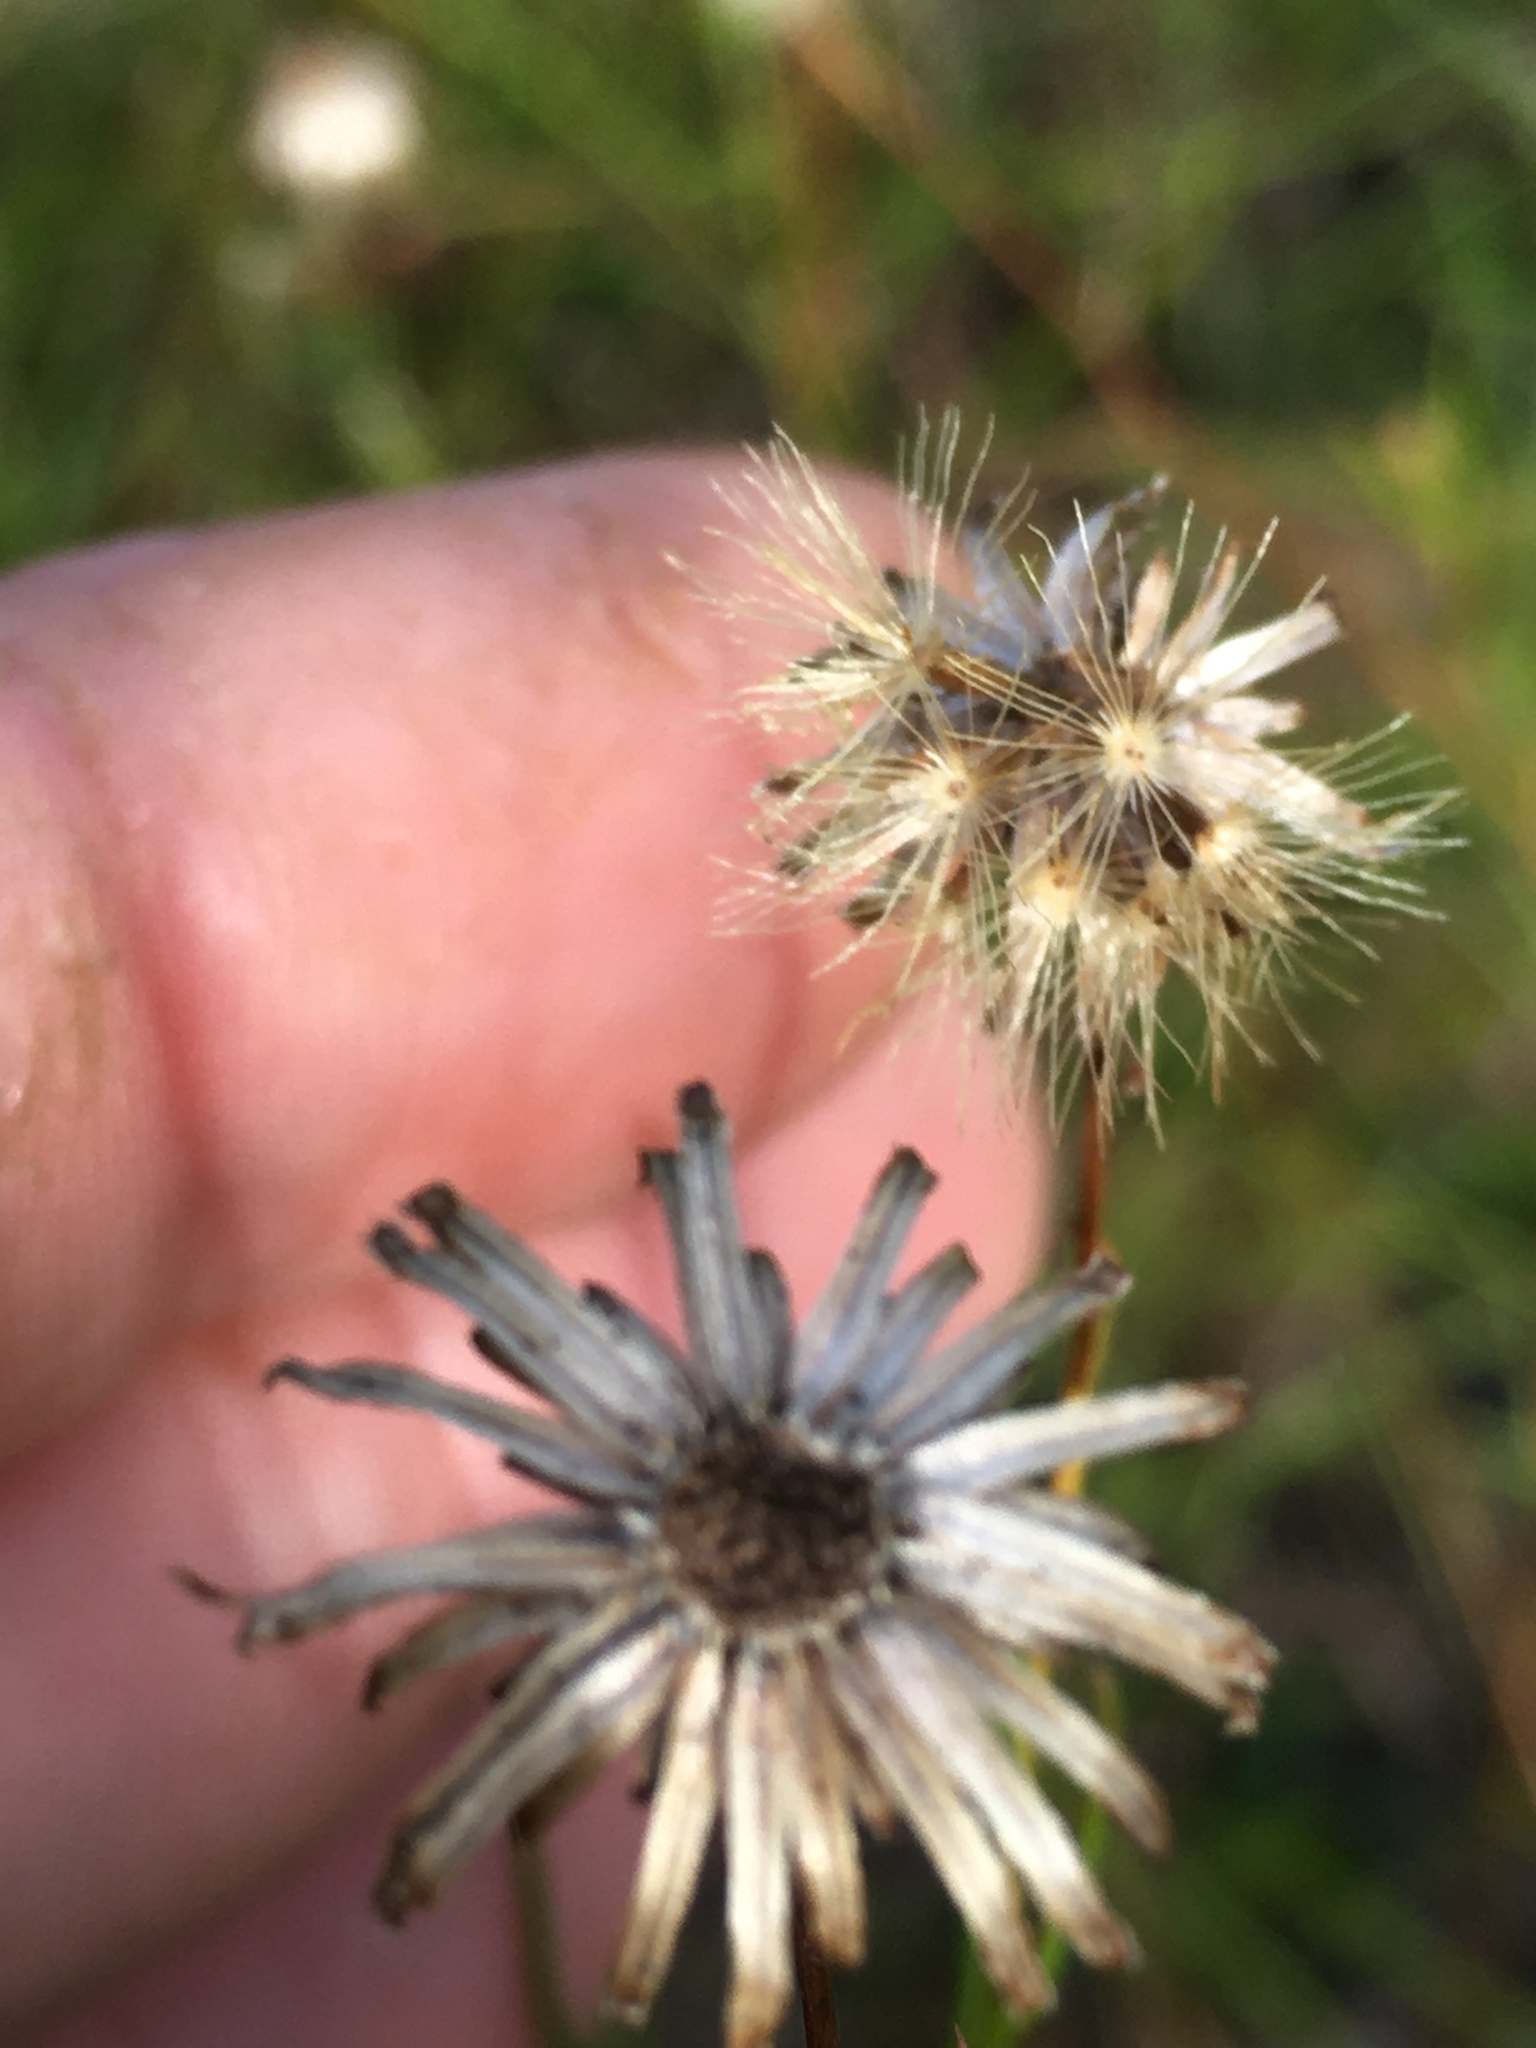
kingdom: Plantae
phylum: Tracheophyta
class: Magnoliopsida
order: Asterales
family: Asteraceae
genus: Pityopsis
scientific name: Pityopsis pinifolia
